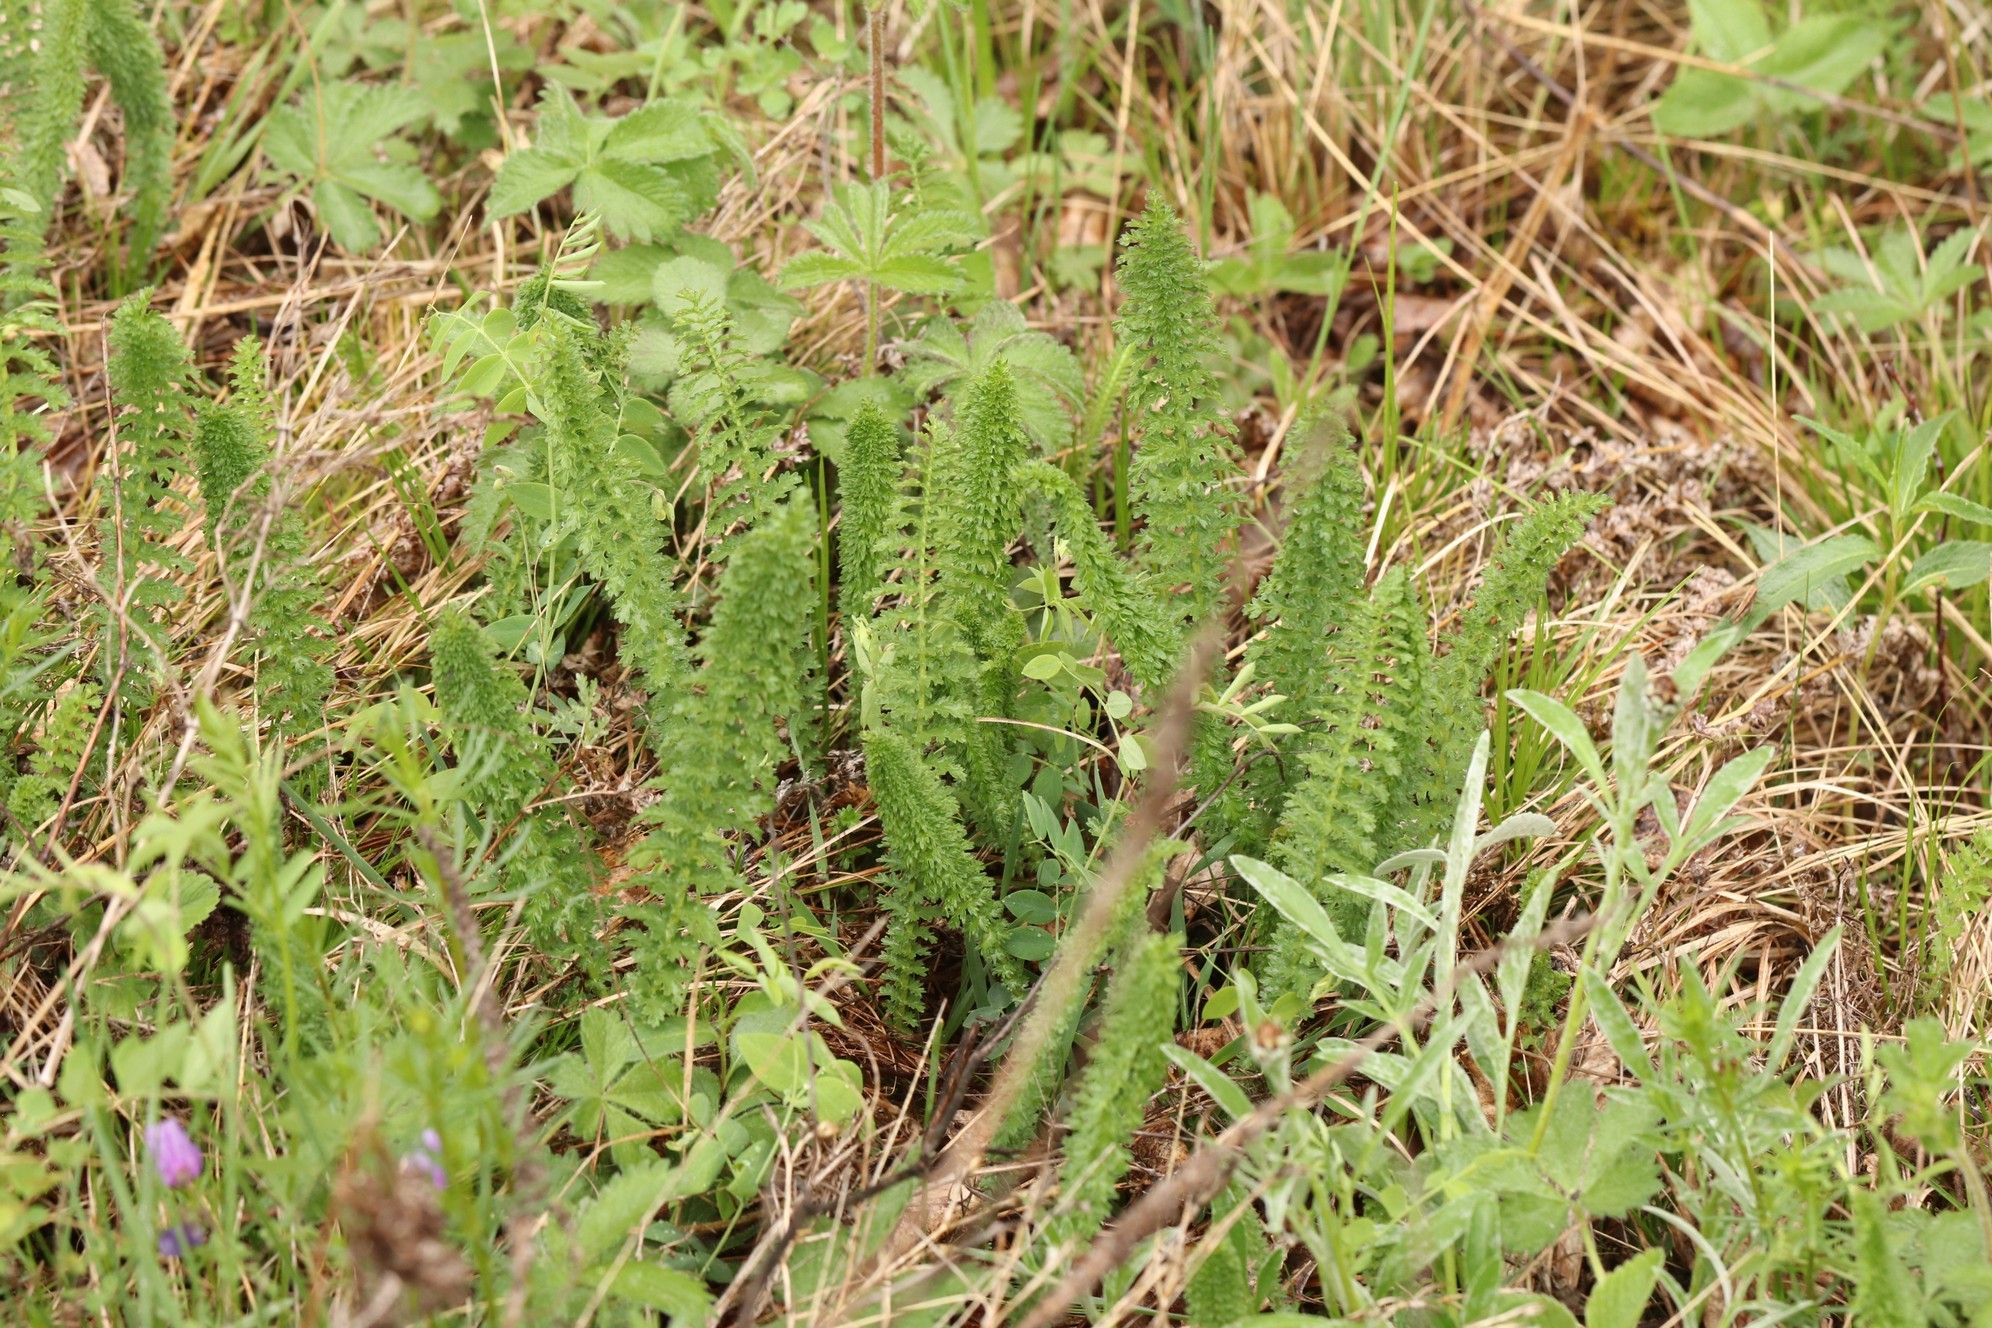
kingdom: Plantae
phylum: Tracheophyta
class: Magnoliopsida
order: Rosales
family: Rosaceae
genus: Filipendula
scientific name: Filipendula vulgaris
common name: Dropwort
